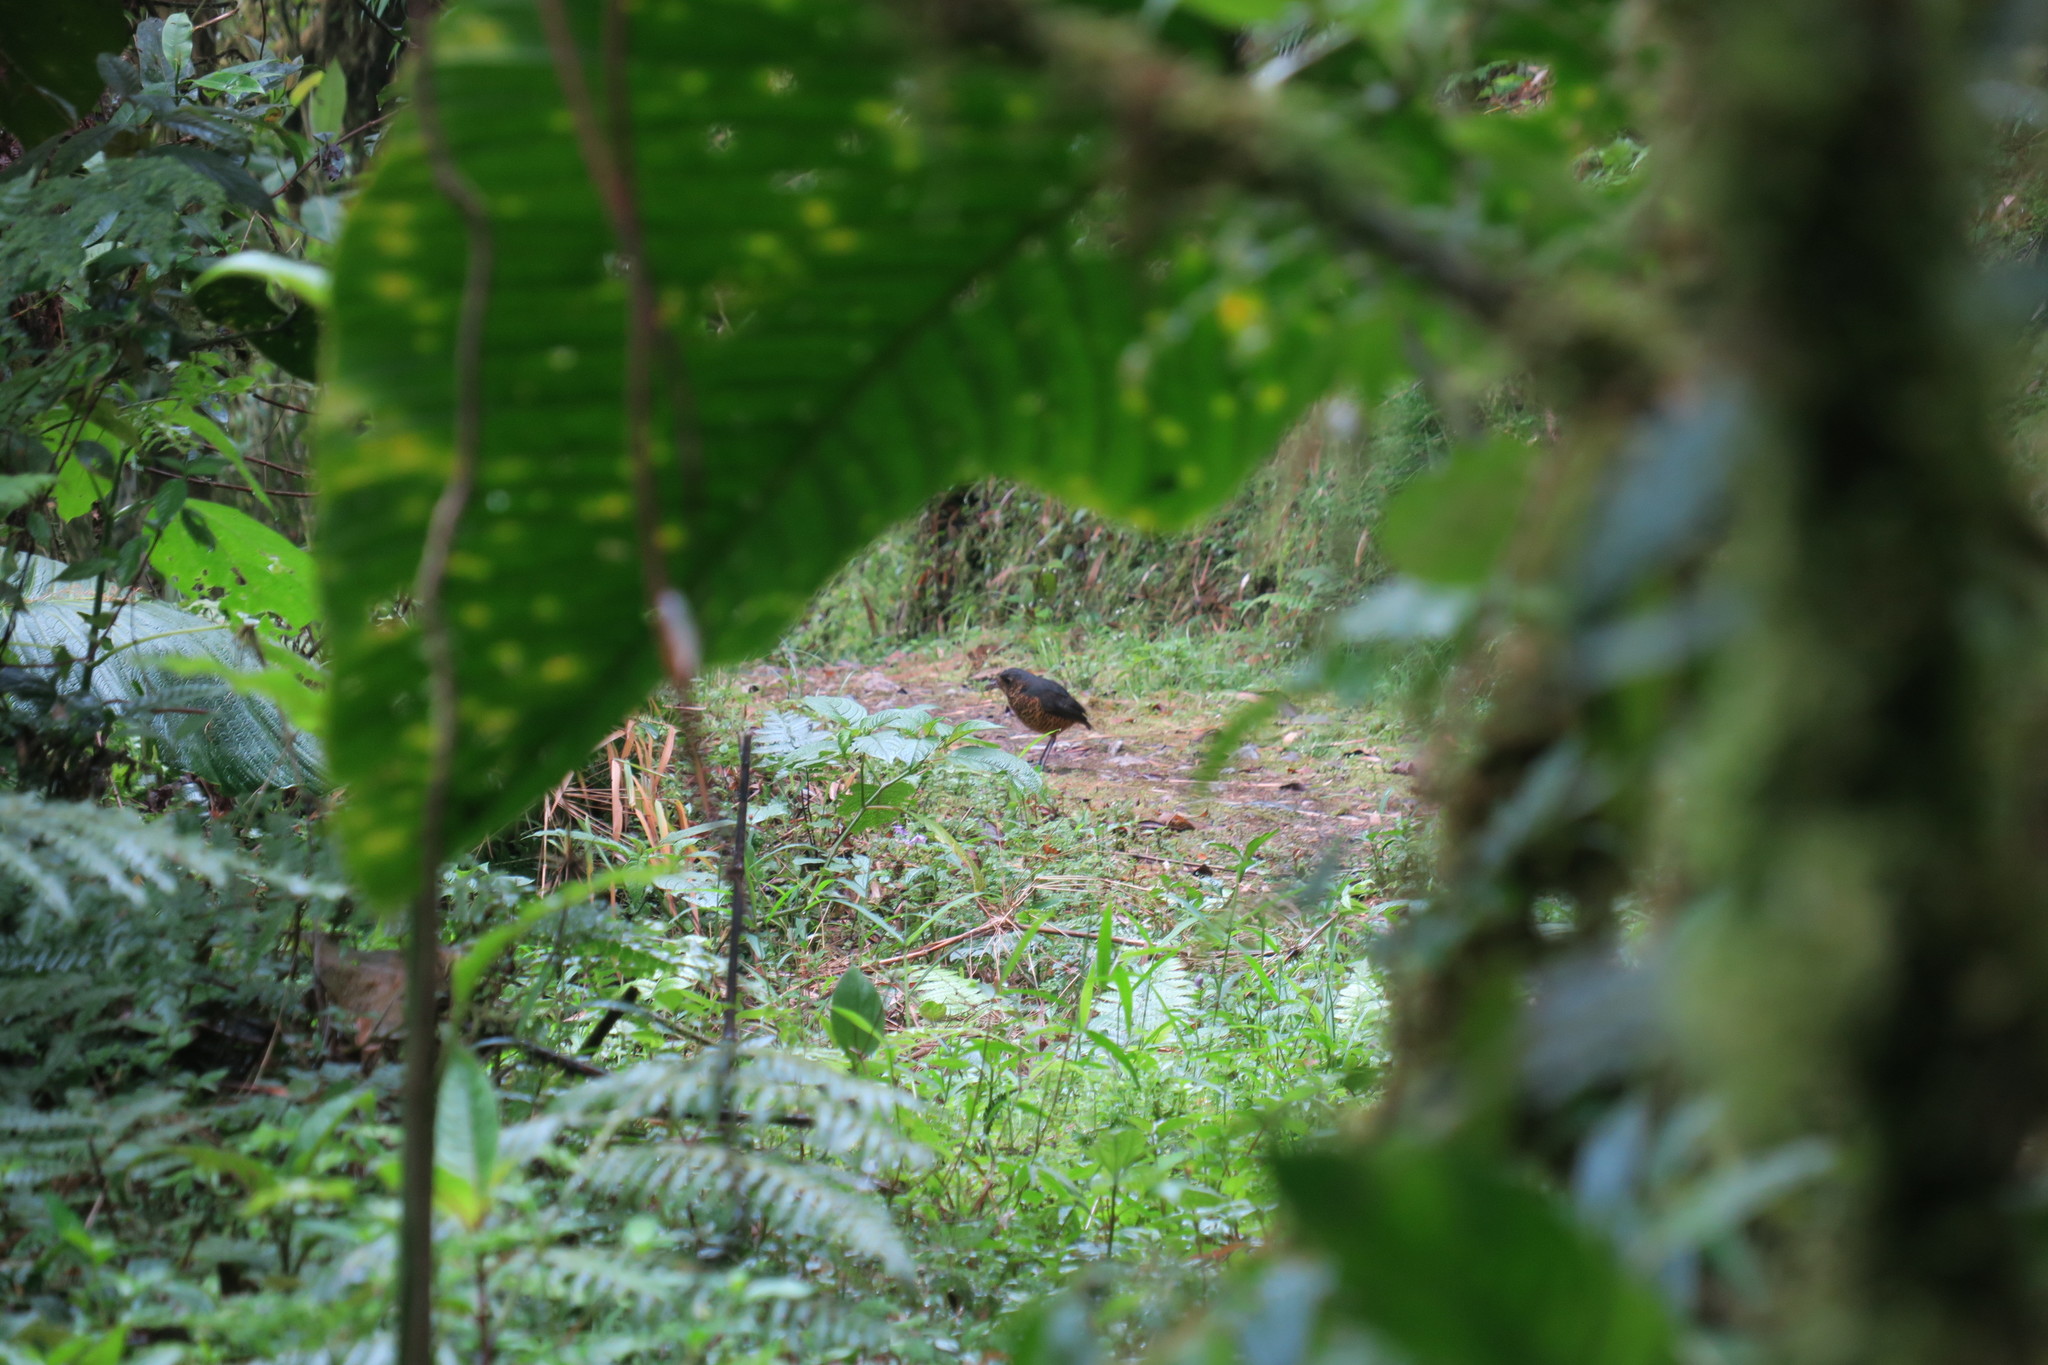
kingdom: Animalia
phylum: Chordata
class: Aves
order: Passeriformes
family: Grallariidae
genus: Grallaria
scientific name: Grallaria squamigera
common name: Undulated antpitta
